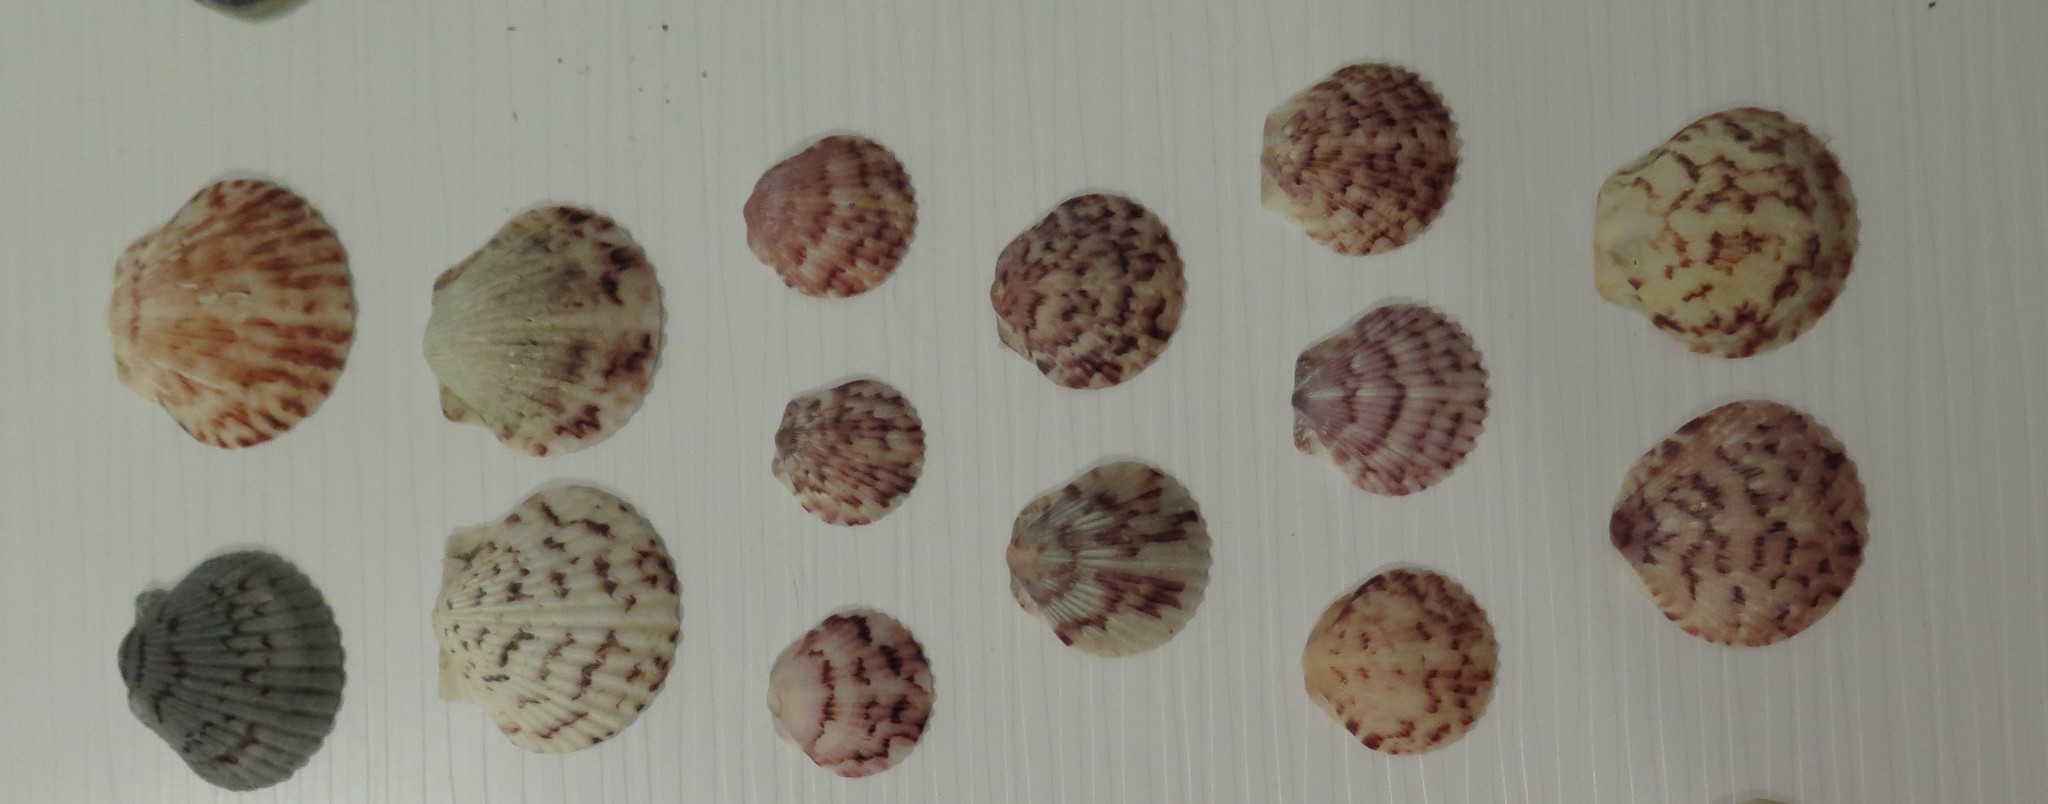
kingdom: Animalia
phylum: Mollusca
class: Bivalvia
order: Pectinida
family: Pectinidae
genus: Argopecten
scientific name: Argopecten gibbus
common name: Atlantic calico scallop
